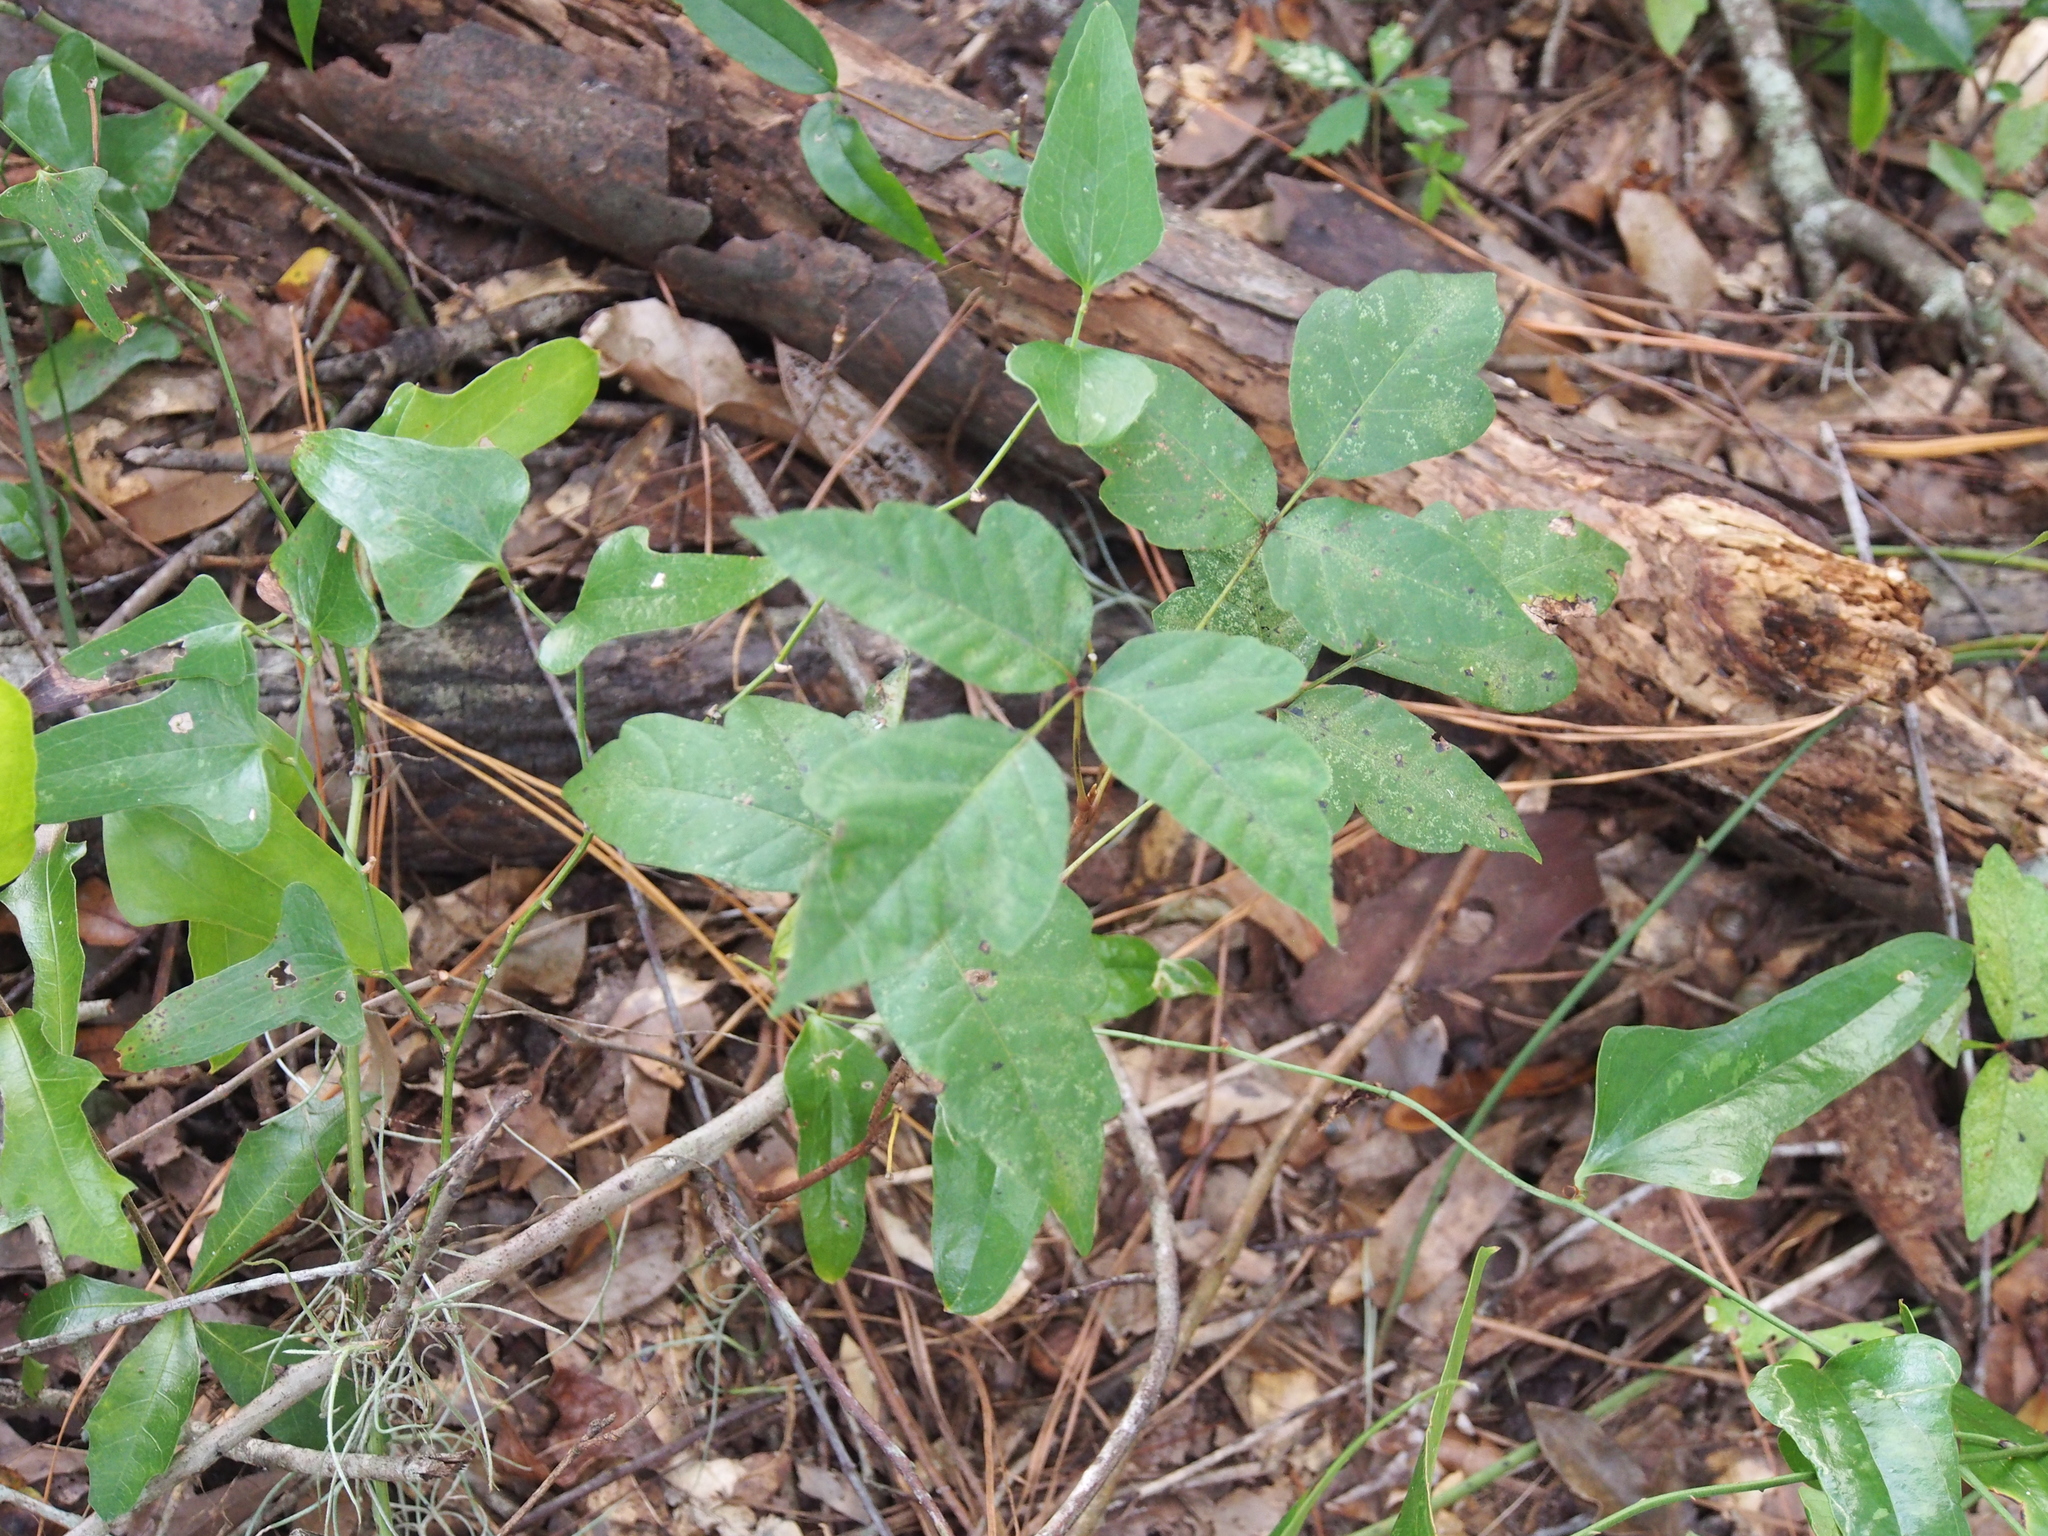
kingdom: Plantae
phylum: Tracheophyta
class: Magnoliopsida
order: Sapindales
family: Anacardiaceae
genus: Toxicodendron
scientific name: Toxicodendron radicans
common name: Poison ivy
